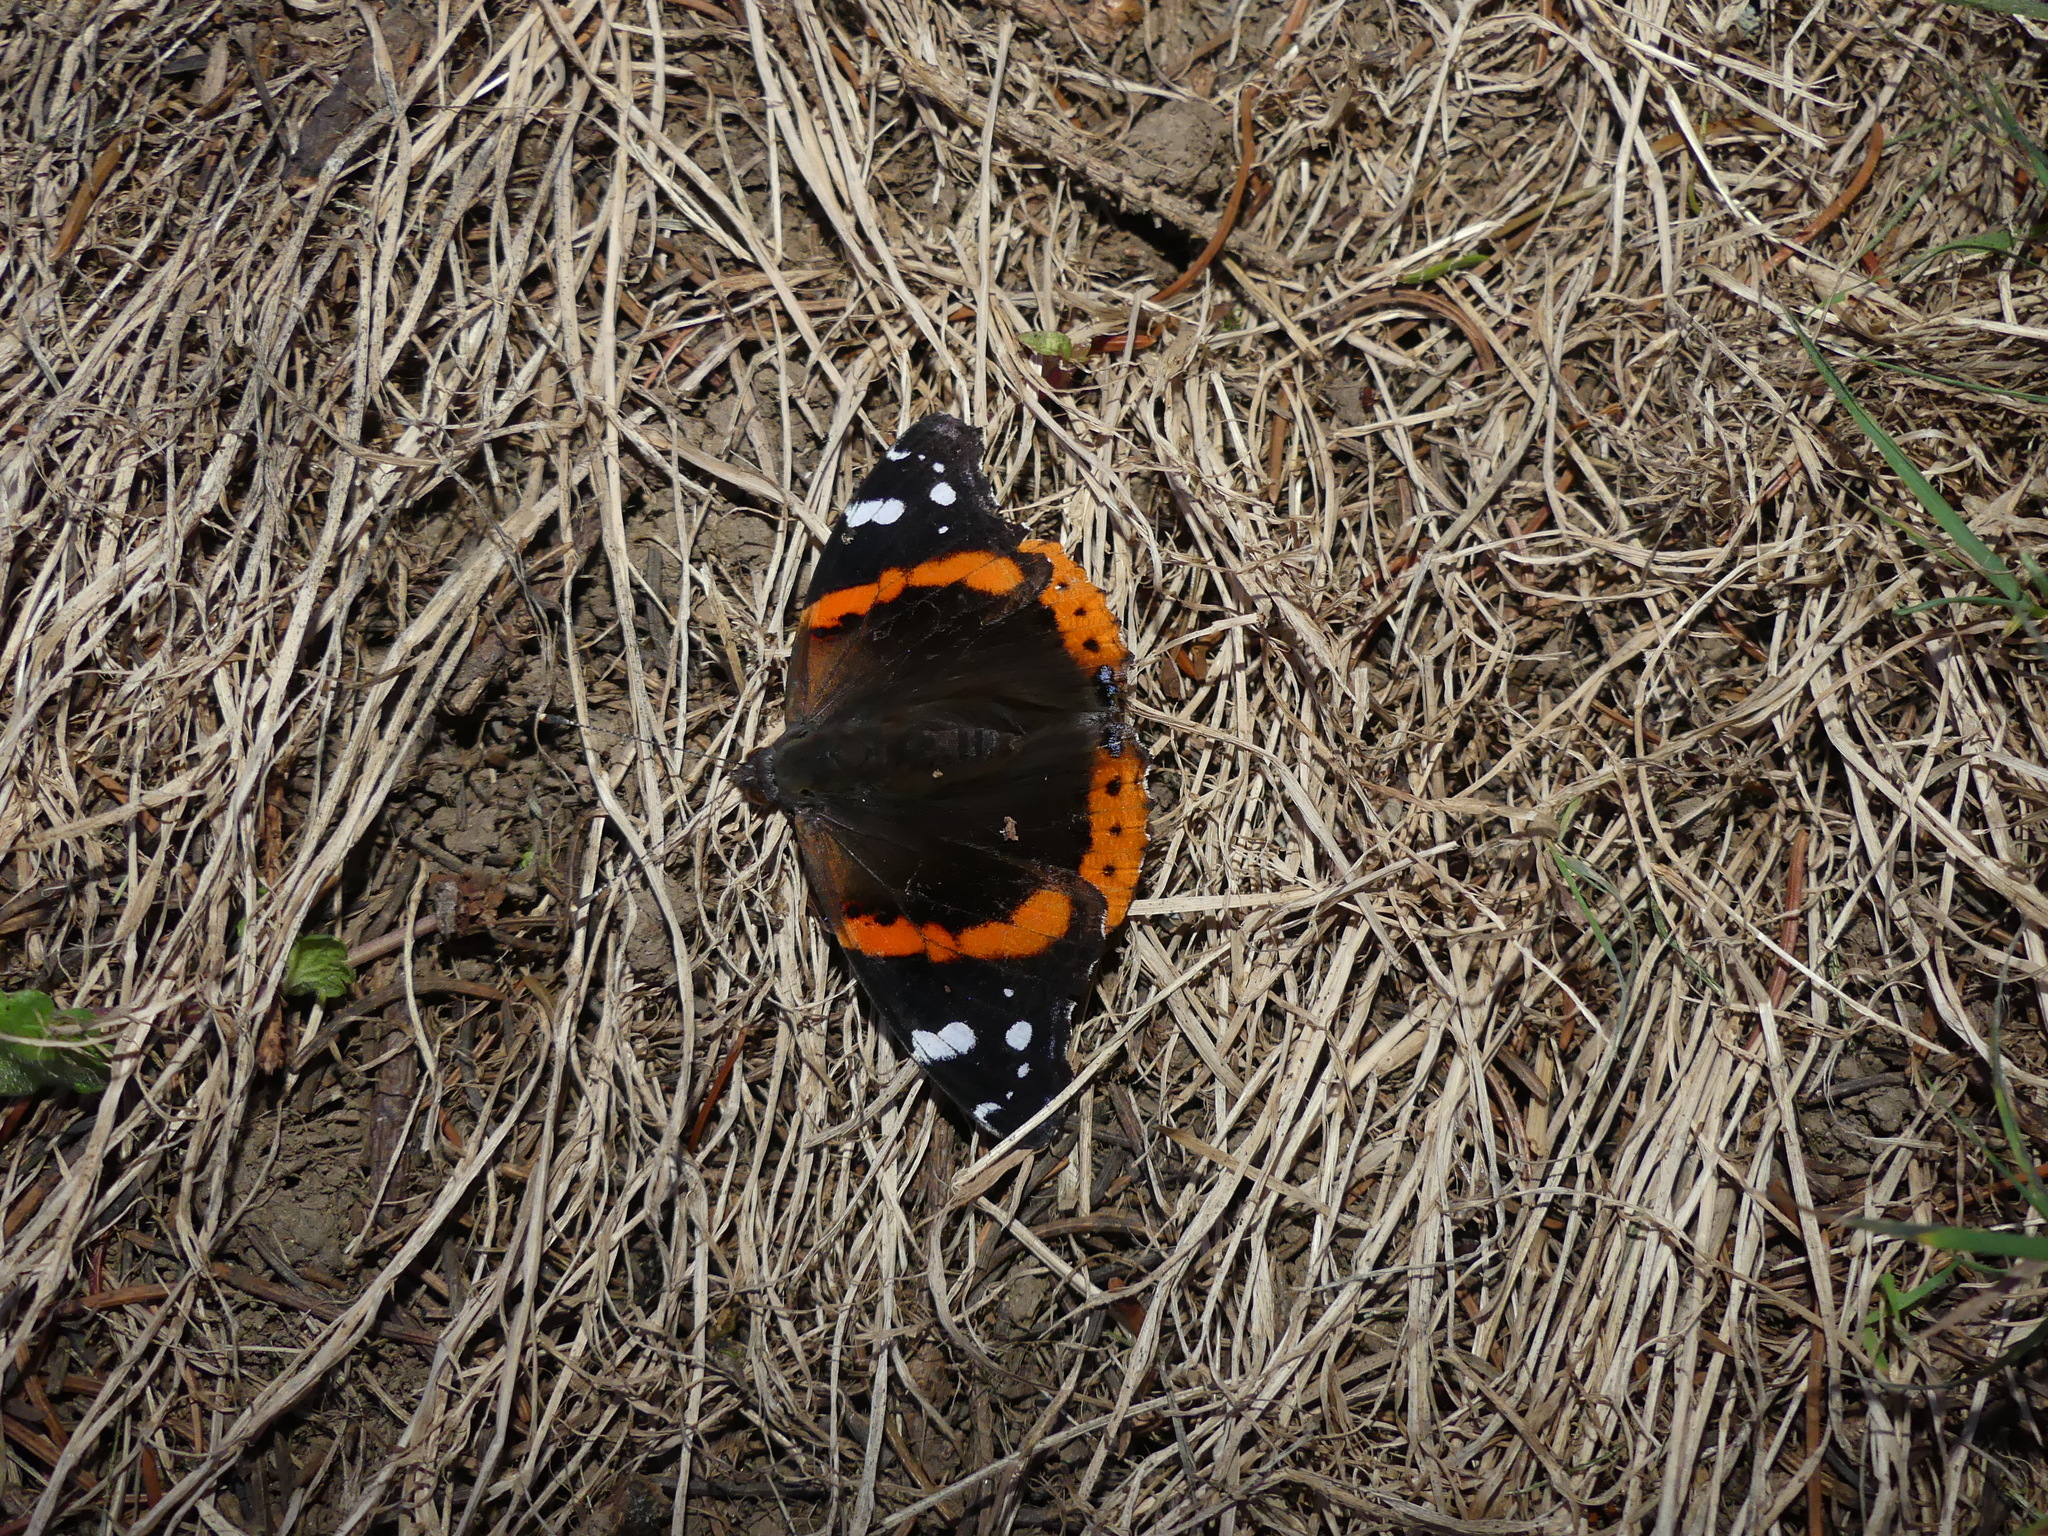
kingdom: Animalia
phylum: Arthropoda
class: Insecta
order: Lepidoptera
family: Nymphalidae
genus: Vanessa
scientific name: Vanessa atalanta
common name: Red admiral
